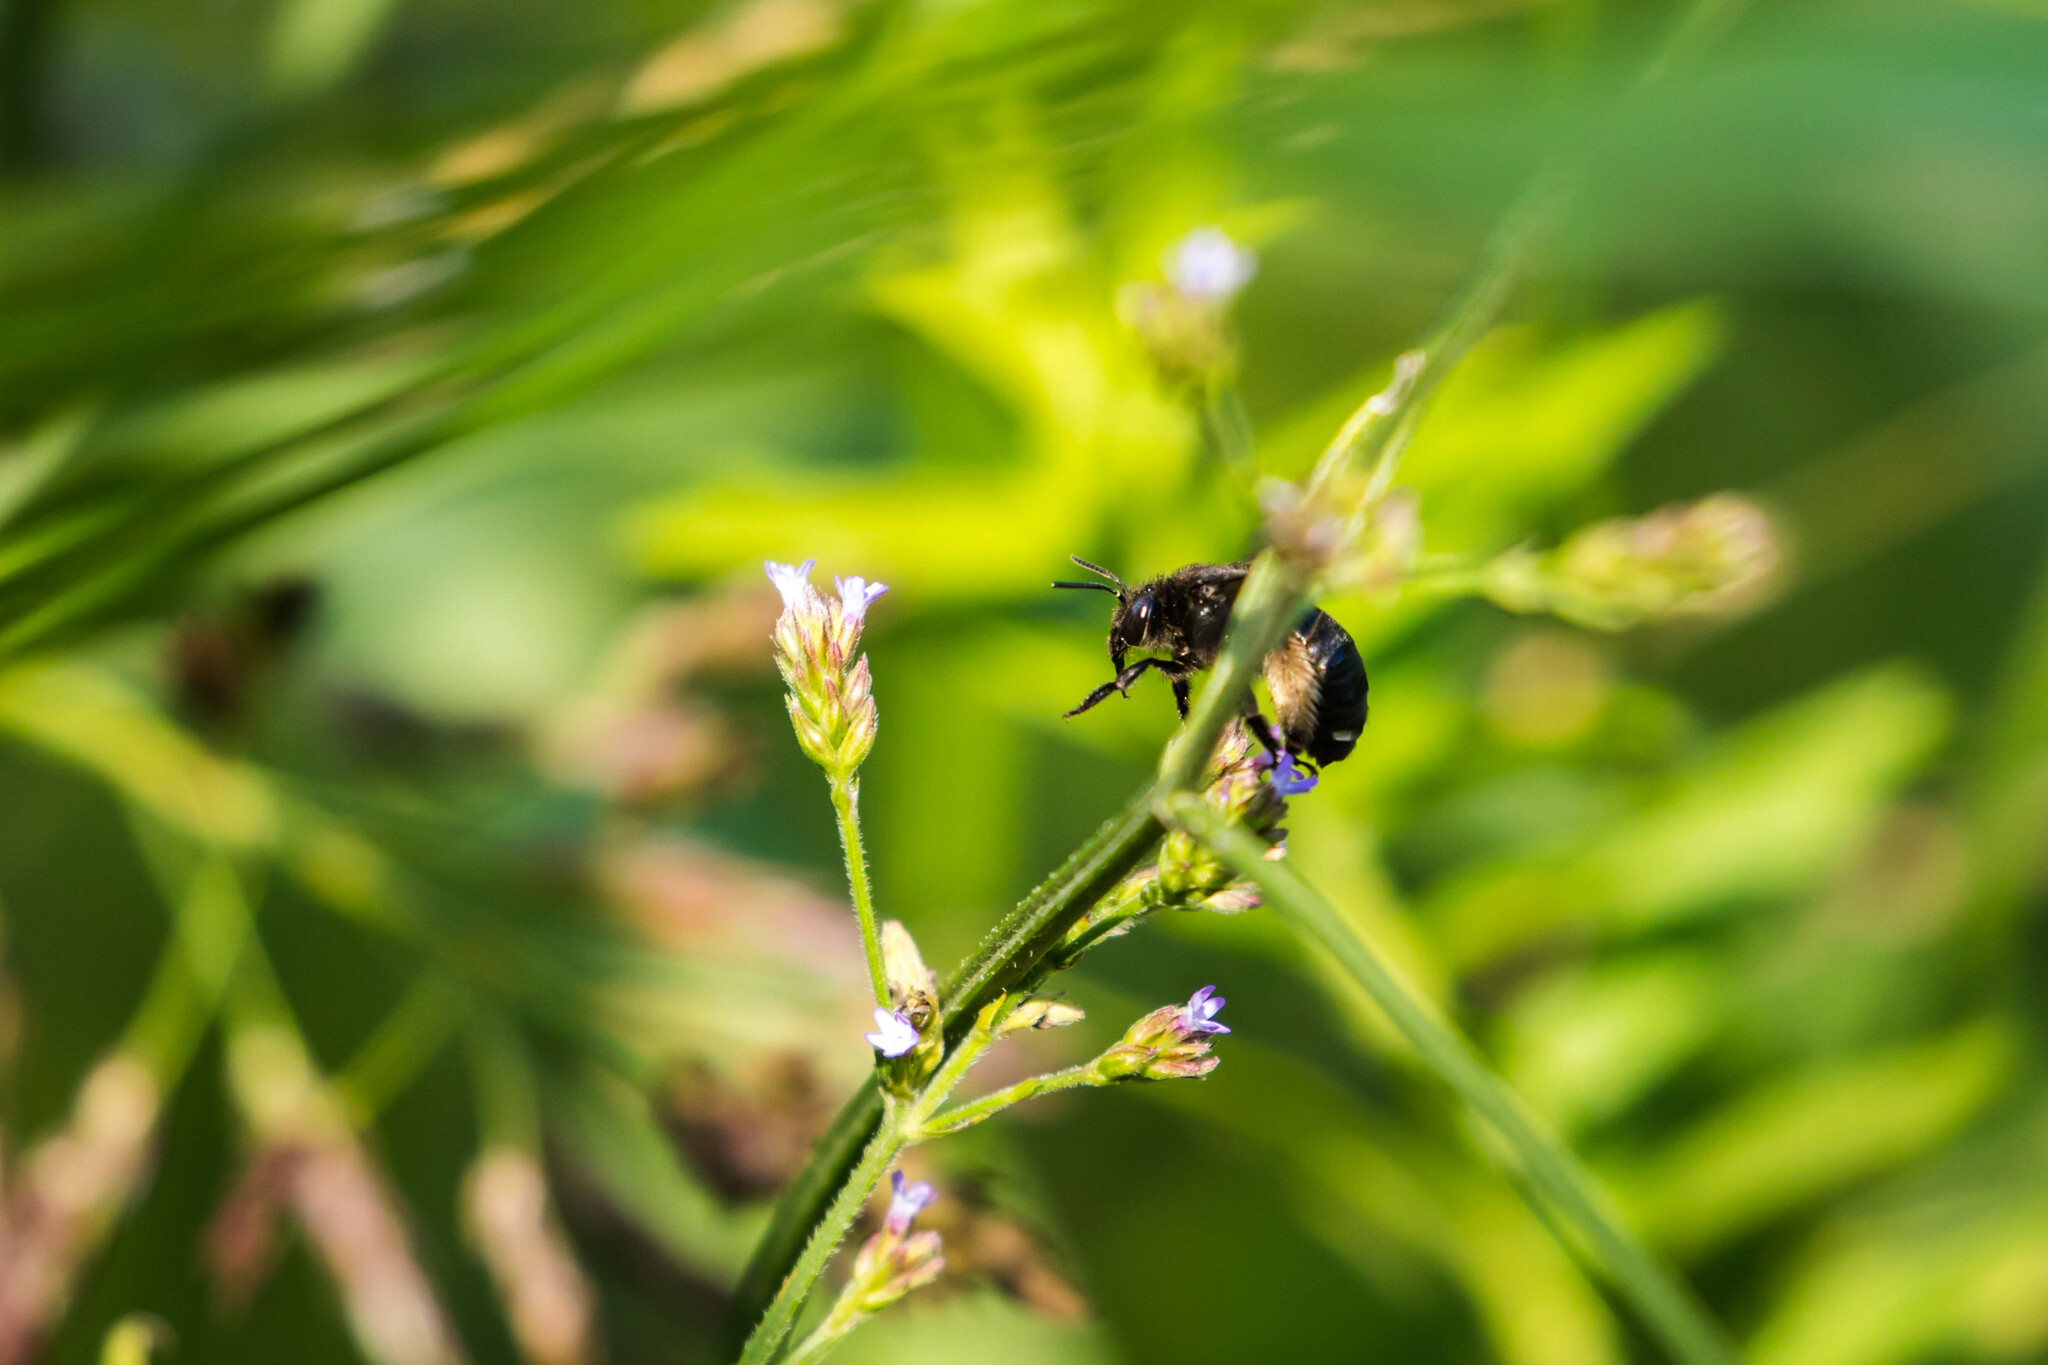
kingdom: Animalia
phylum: Arthropoda
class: Insecta
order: Hymenoptera
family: Apidae
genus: Melissodes
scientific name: Melissodes bimaculatus
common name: Two-spotted long-horned bee
